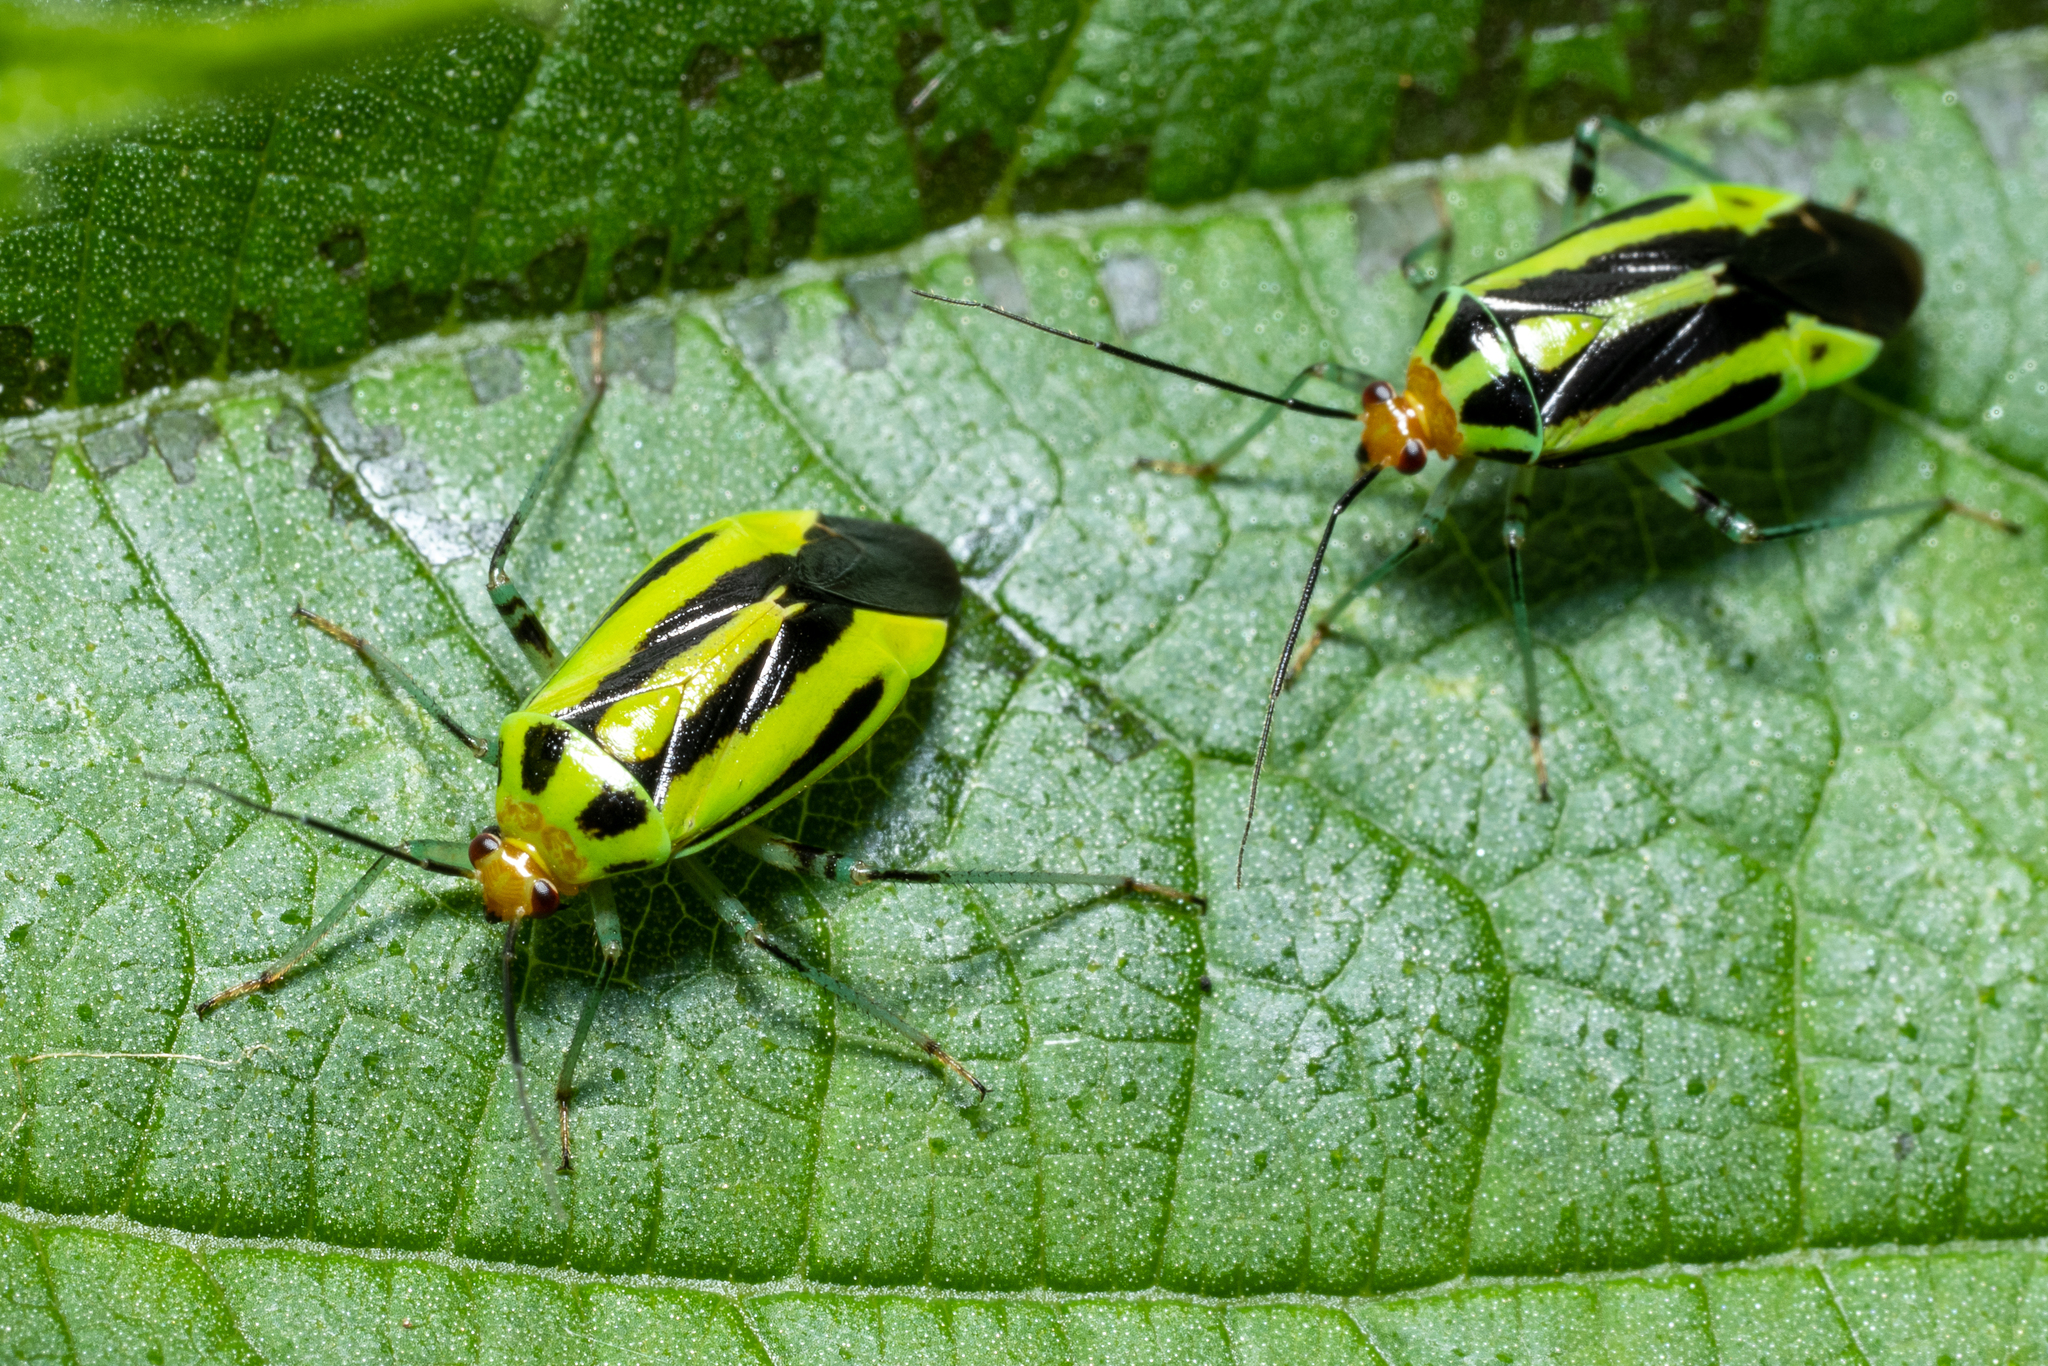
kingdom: Animalia
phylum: Arthropoda
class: Insecta
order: Hemiptera
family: Miridae
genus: Poecilocapsus
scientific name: Poecilocapsus lineatus
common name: Four-lined plant bug
